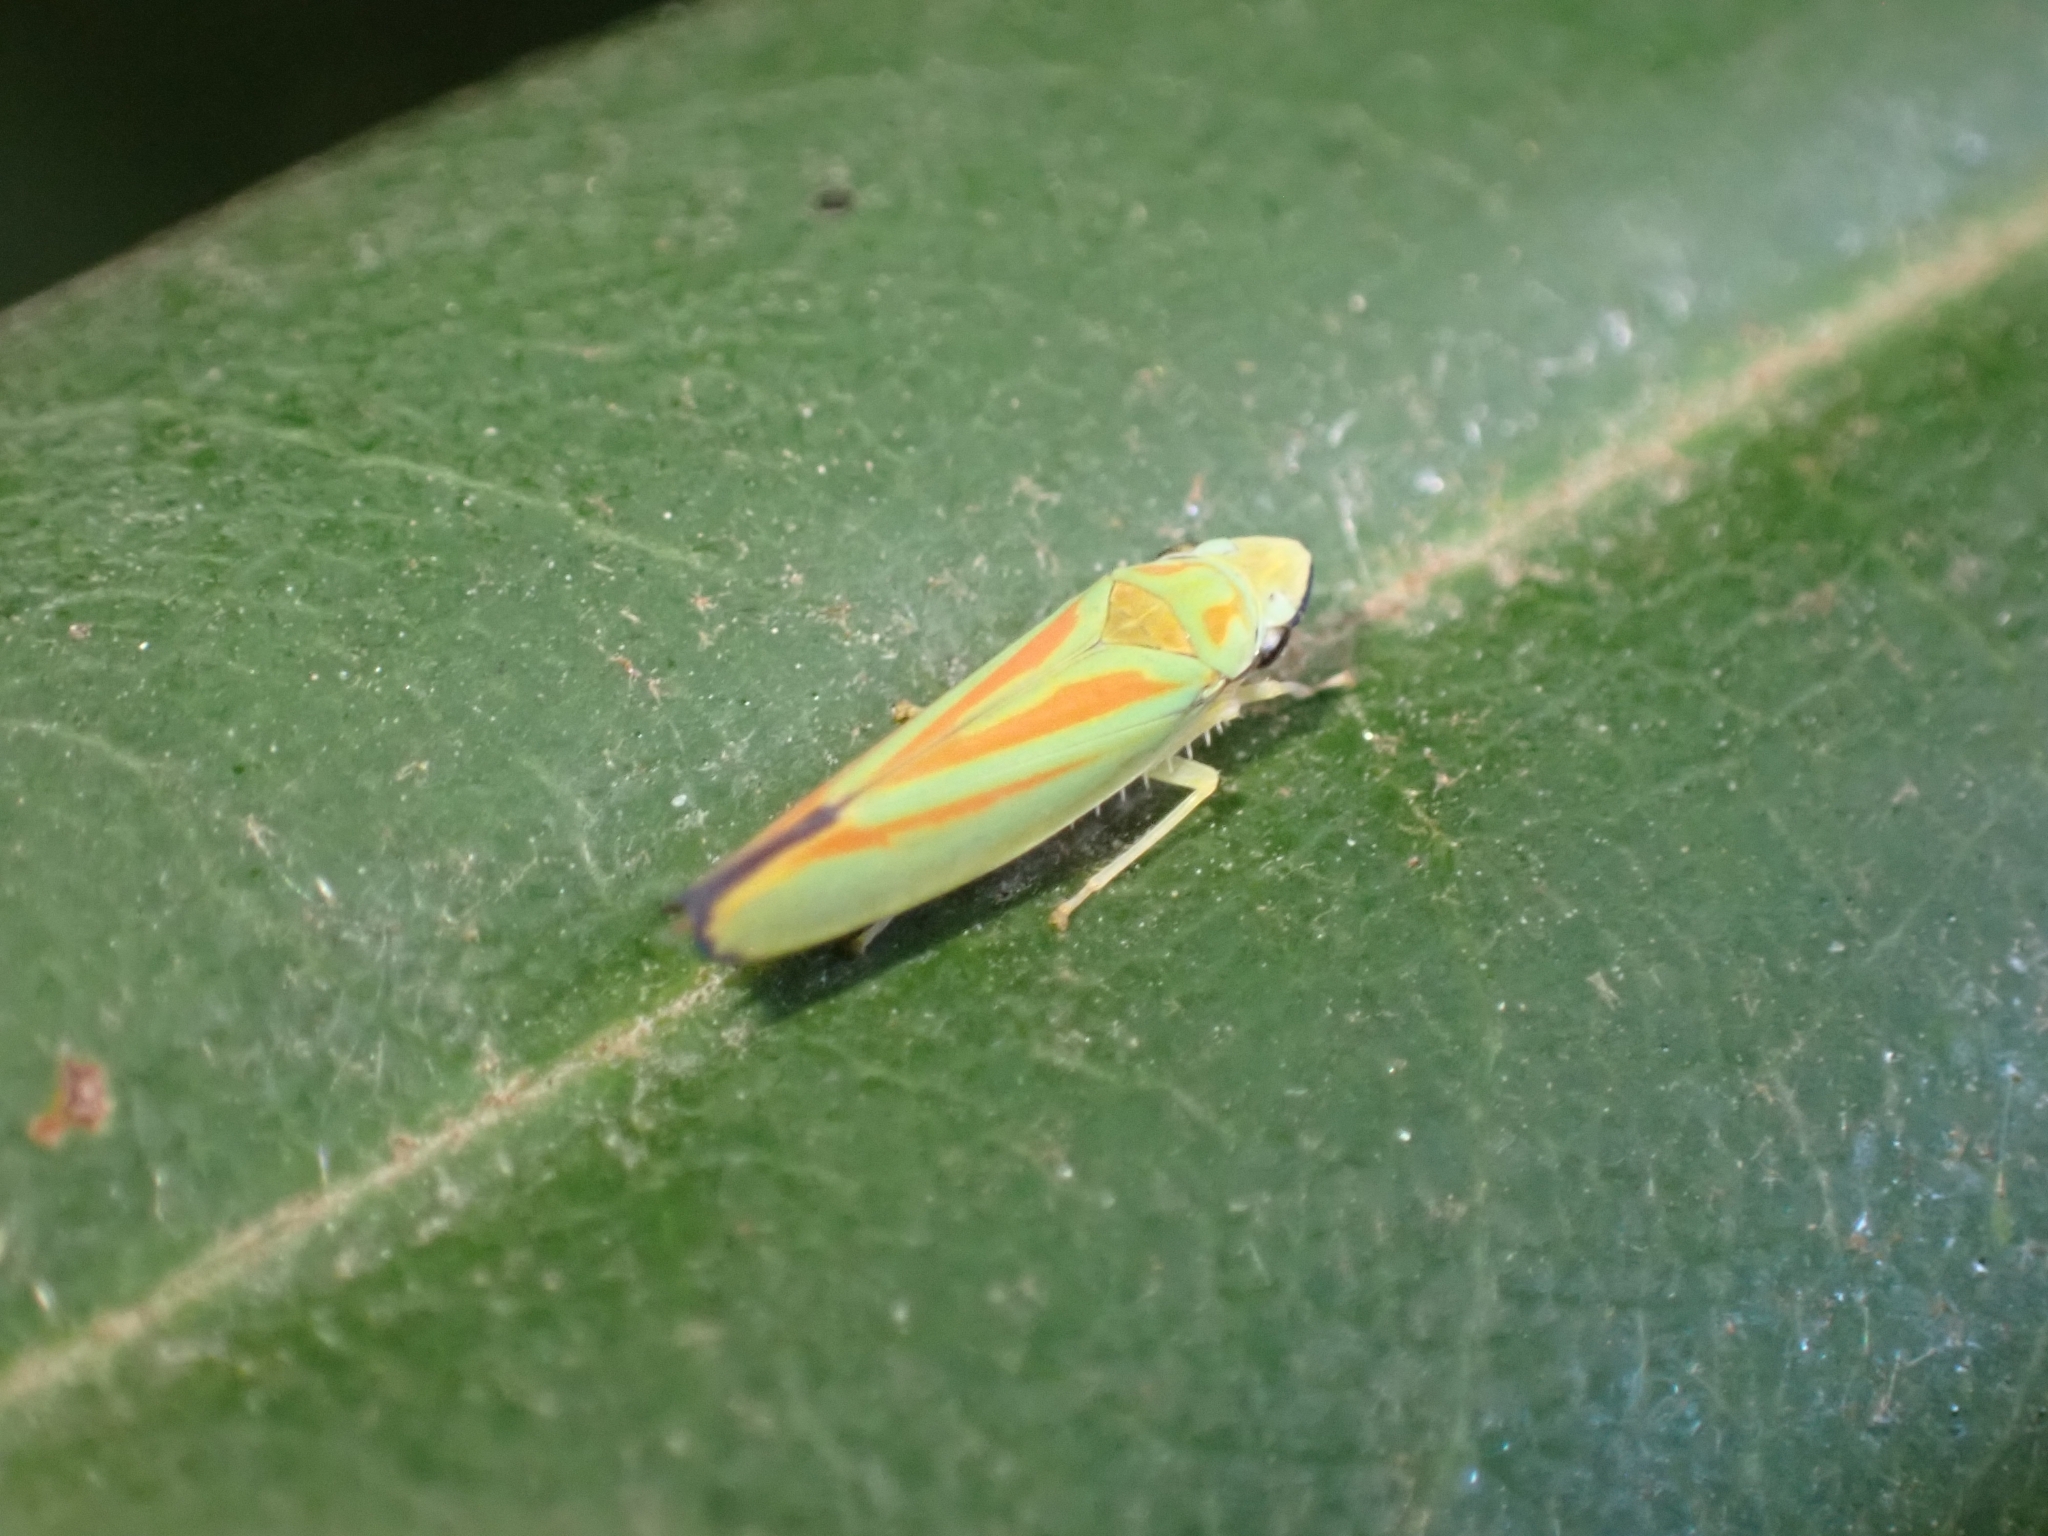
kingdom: Animalia
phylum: Arthropoda
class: Insecta
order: Hemiptera
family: Cicadellidae
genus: Graphocephala
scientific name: Graphocephala fennahi
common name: Rhododendron leafhopper
